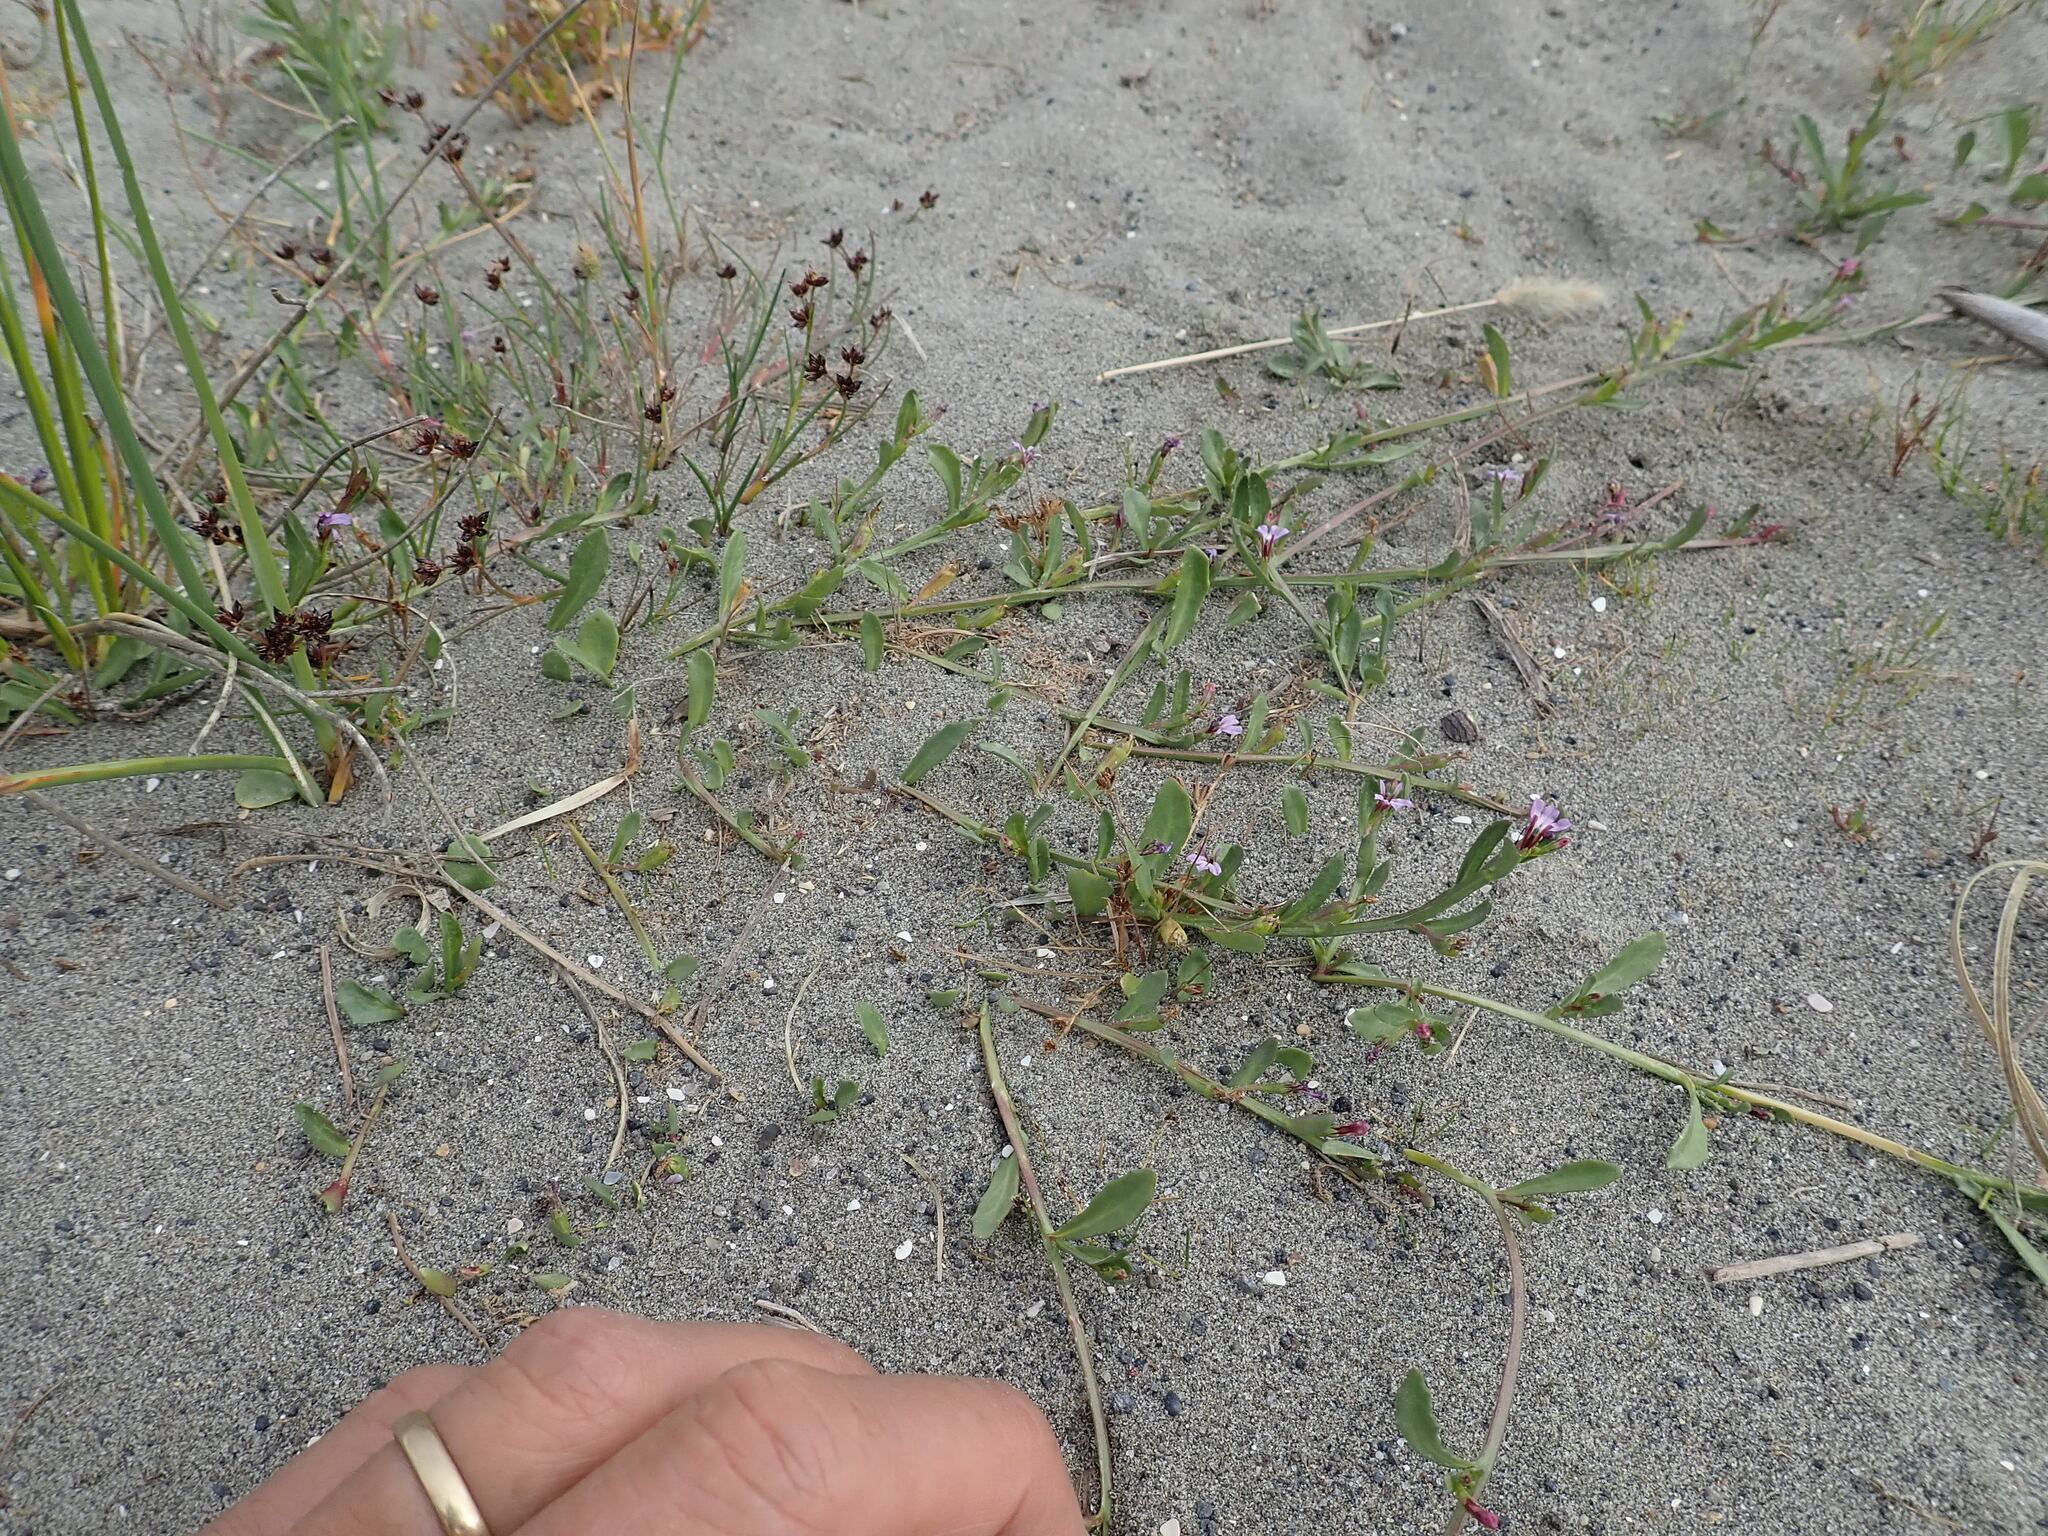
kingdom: Plantae
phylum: Tracheophyta
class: Magnoliopsida
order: Asterales
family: Campanulaceae
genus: Lobelia
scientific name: Lobelia anceps
